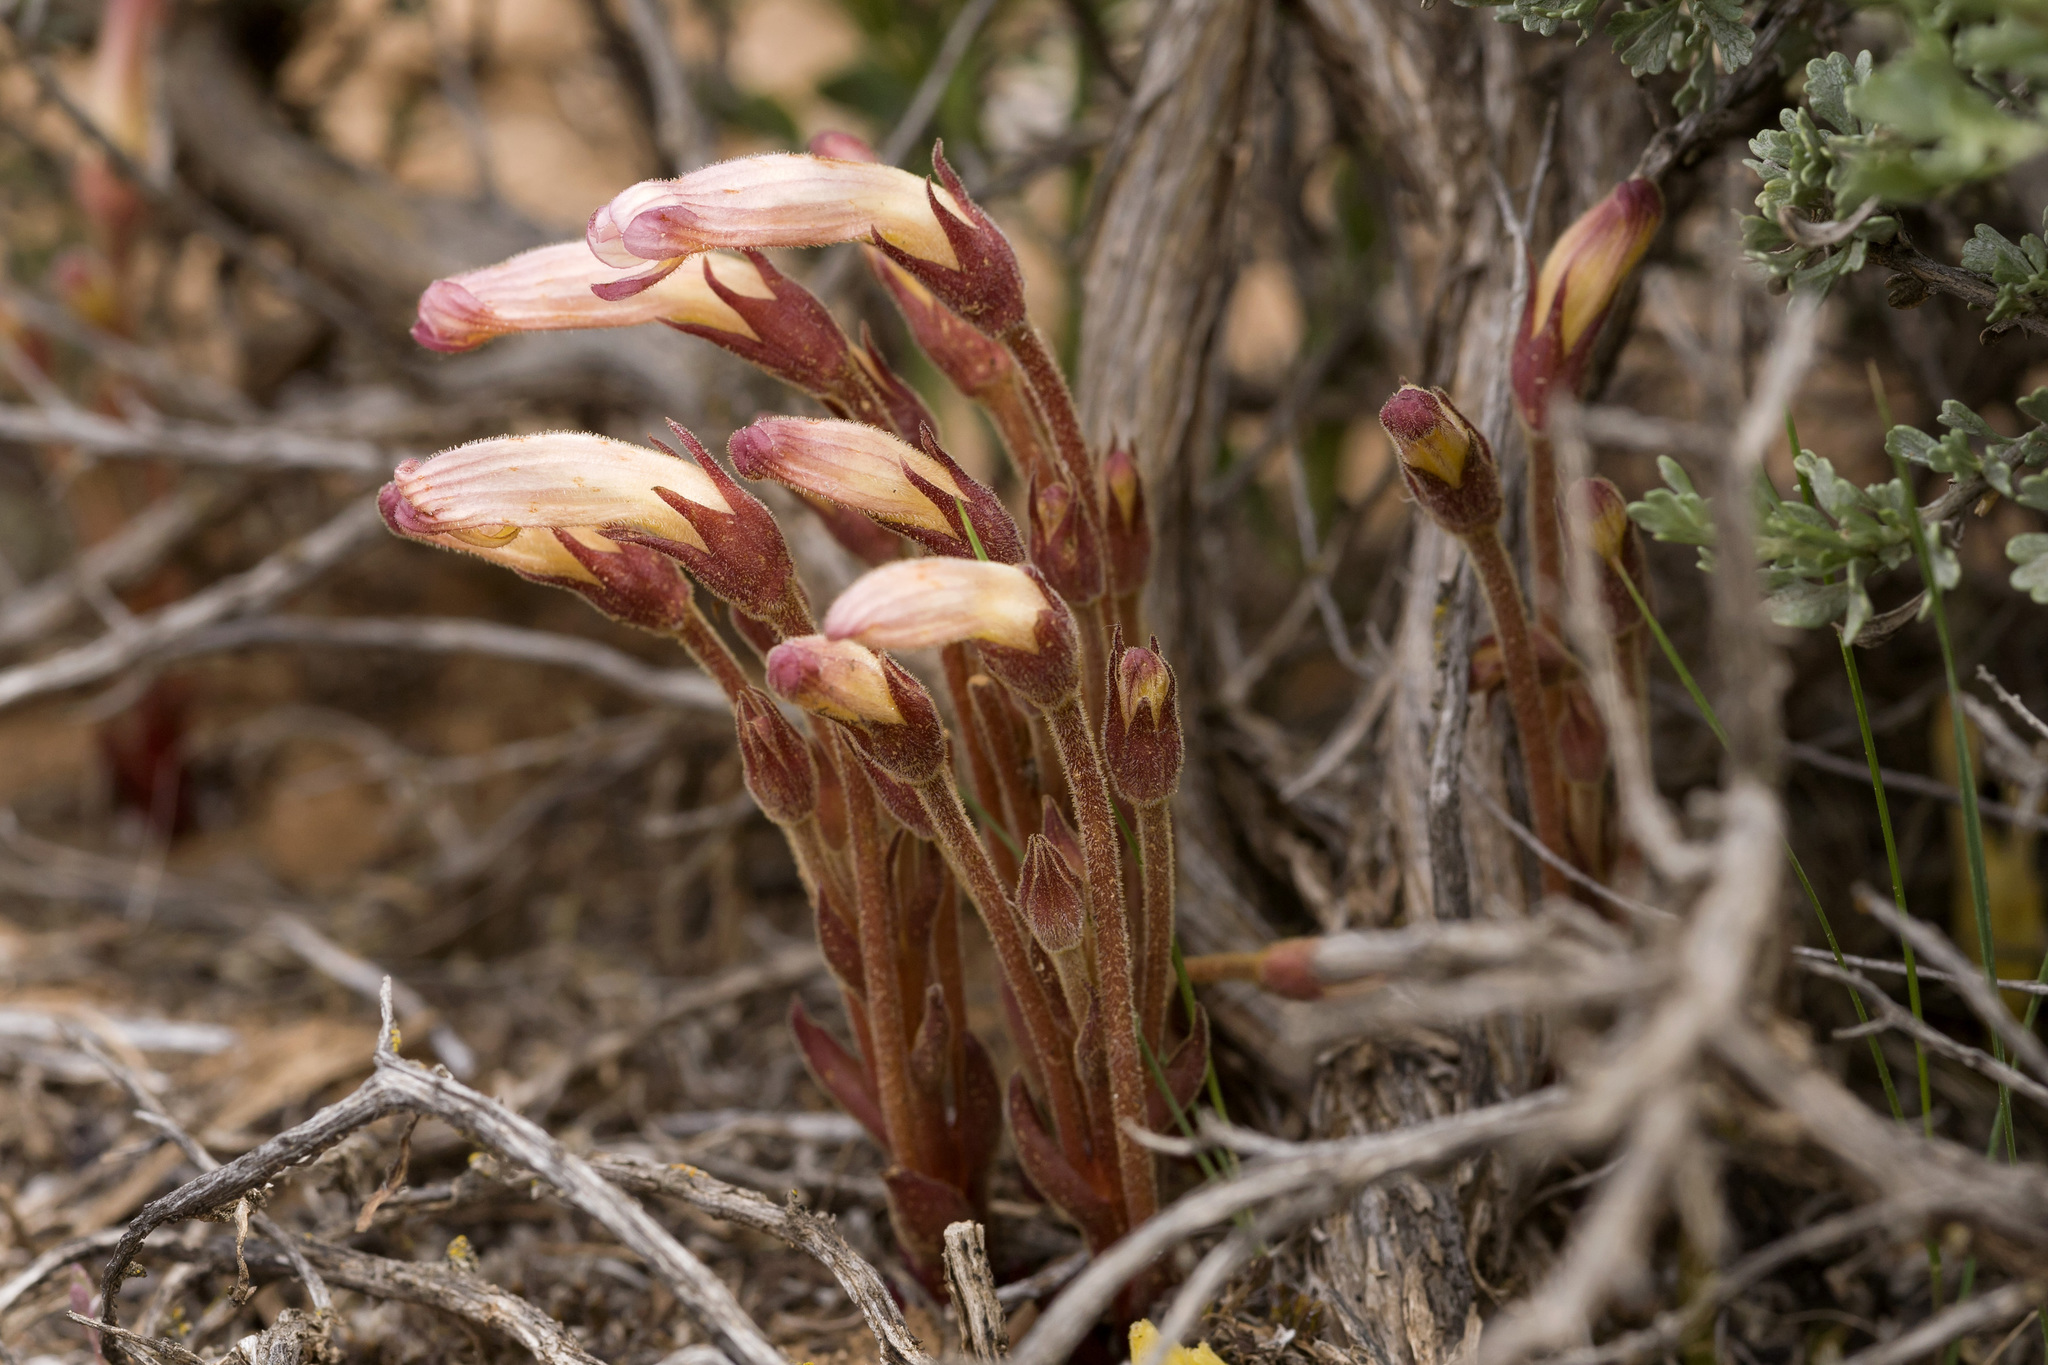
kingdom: Plantae
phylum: Tracheophyta
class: Magnoliopsida
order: Lamiales
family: Orobanchaceae
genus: Aphyllon
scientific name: Aphyllon fasciculatum
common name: Clustered broomrape
